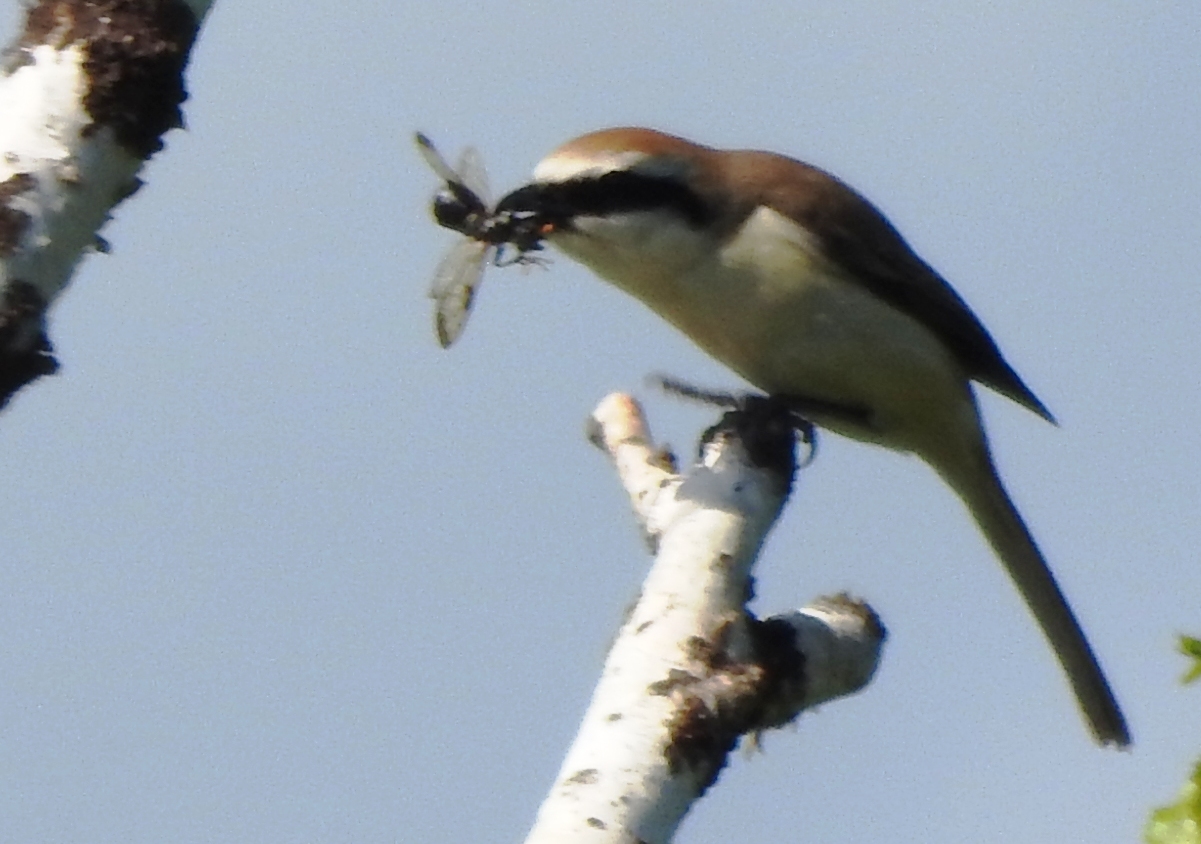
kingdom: Animalia
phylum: Chordata
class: Aves
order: Passeriformes
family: Laniidae
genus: Lanius
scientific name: Lanius cristatus
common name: Brown shrike
